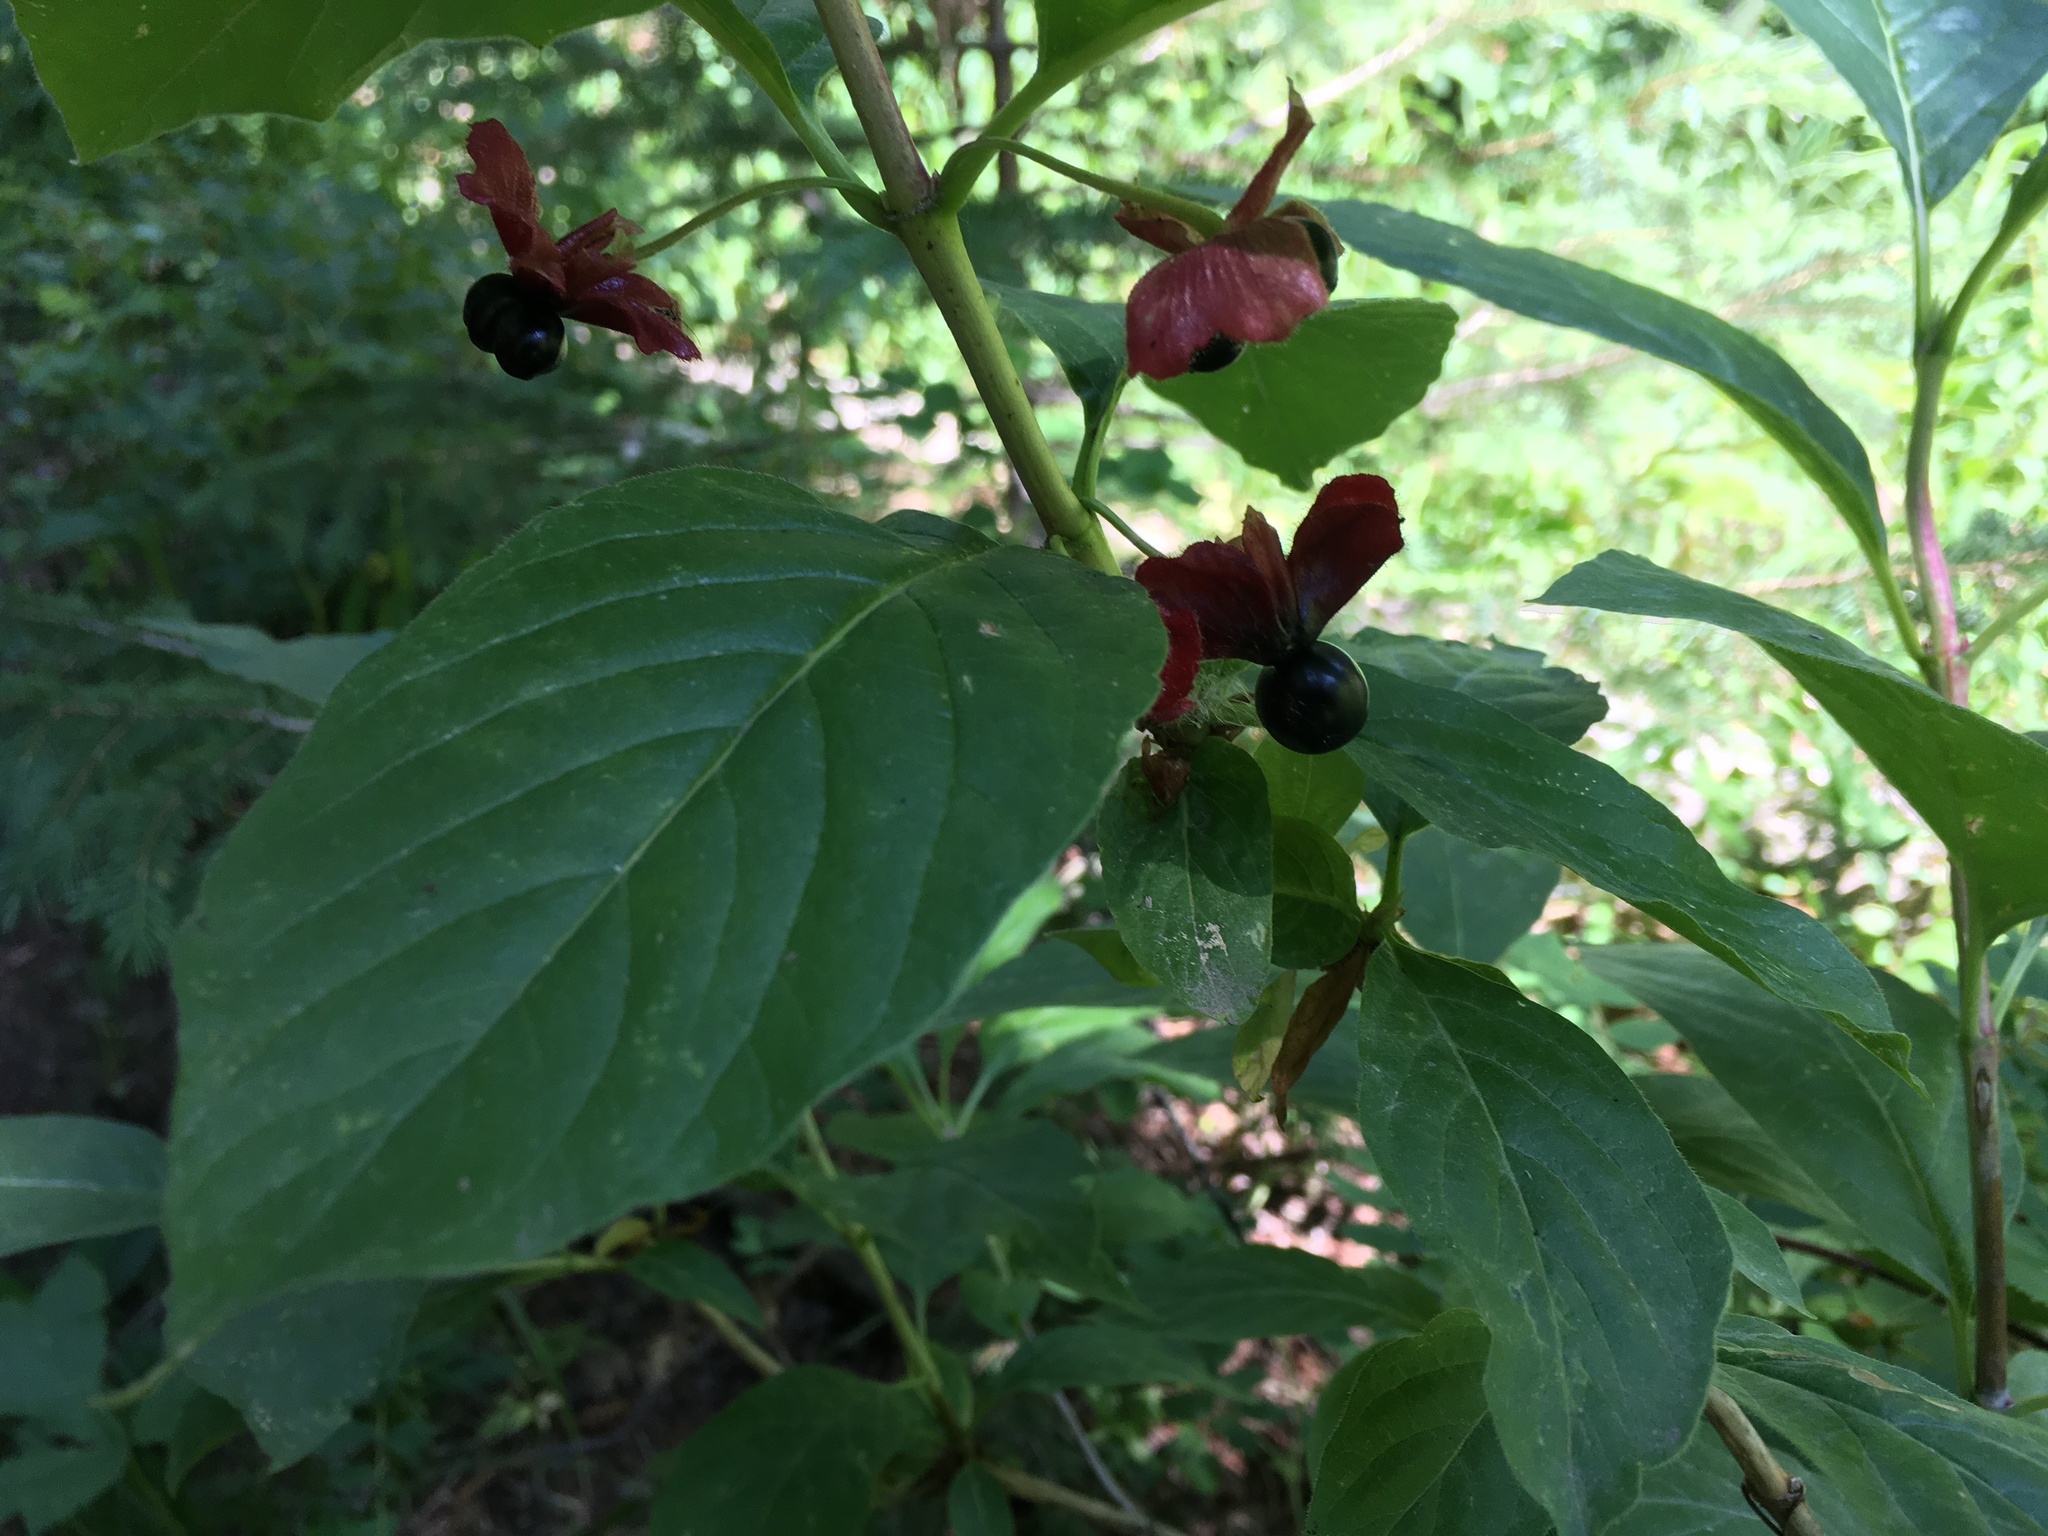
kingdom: Plantae
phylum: Tracheophyta
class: Magnoliopsida
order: Dipsacales
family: Caprifoliaceae
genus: Lonicera
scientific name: Lonicera involucrata
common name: Californian honeysuckle
